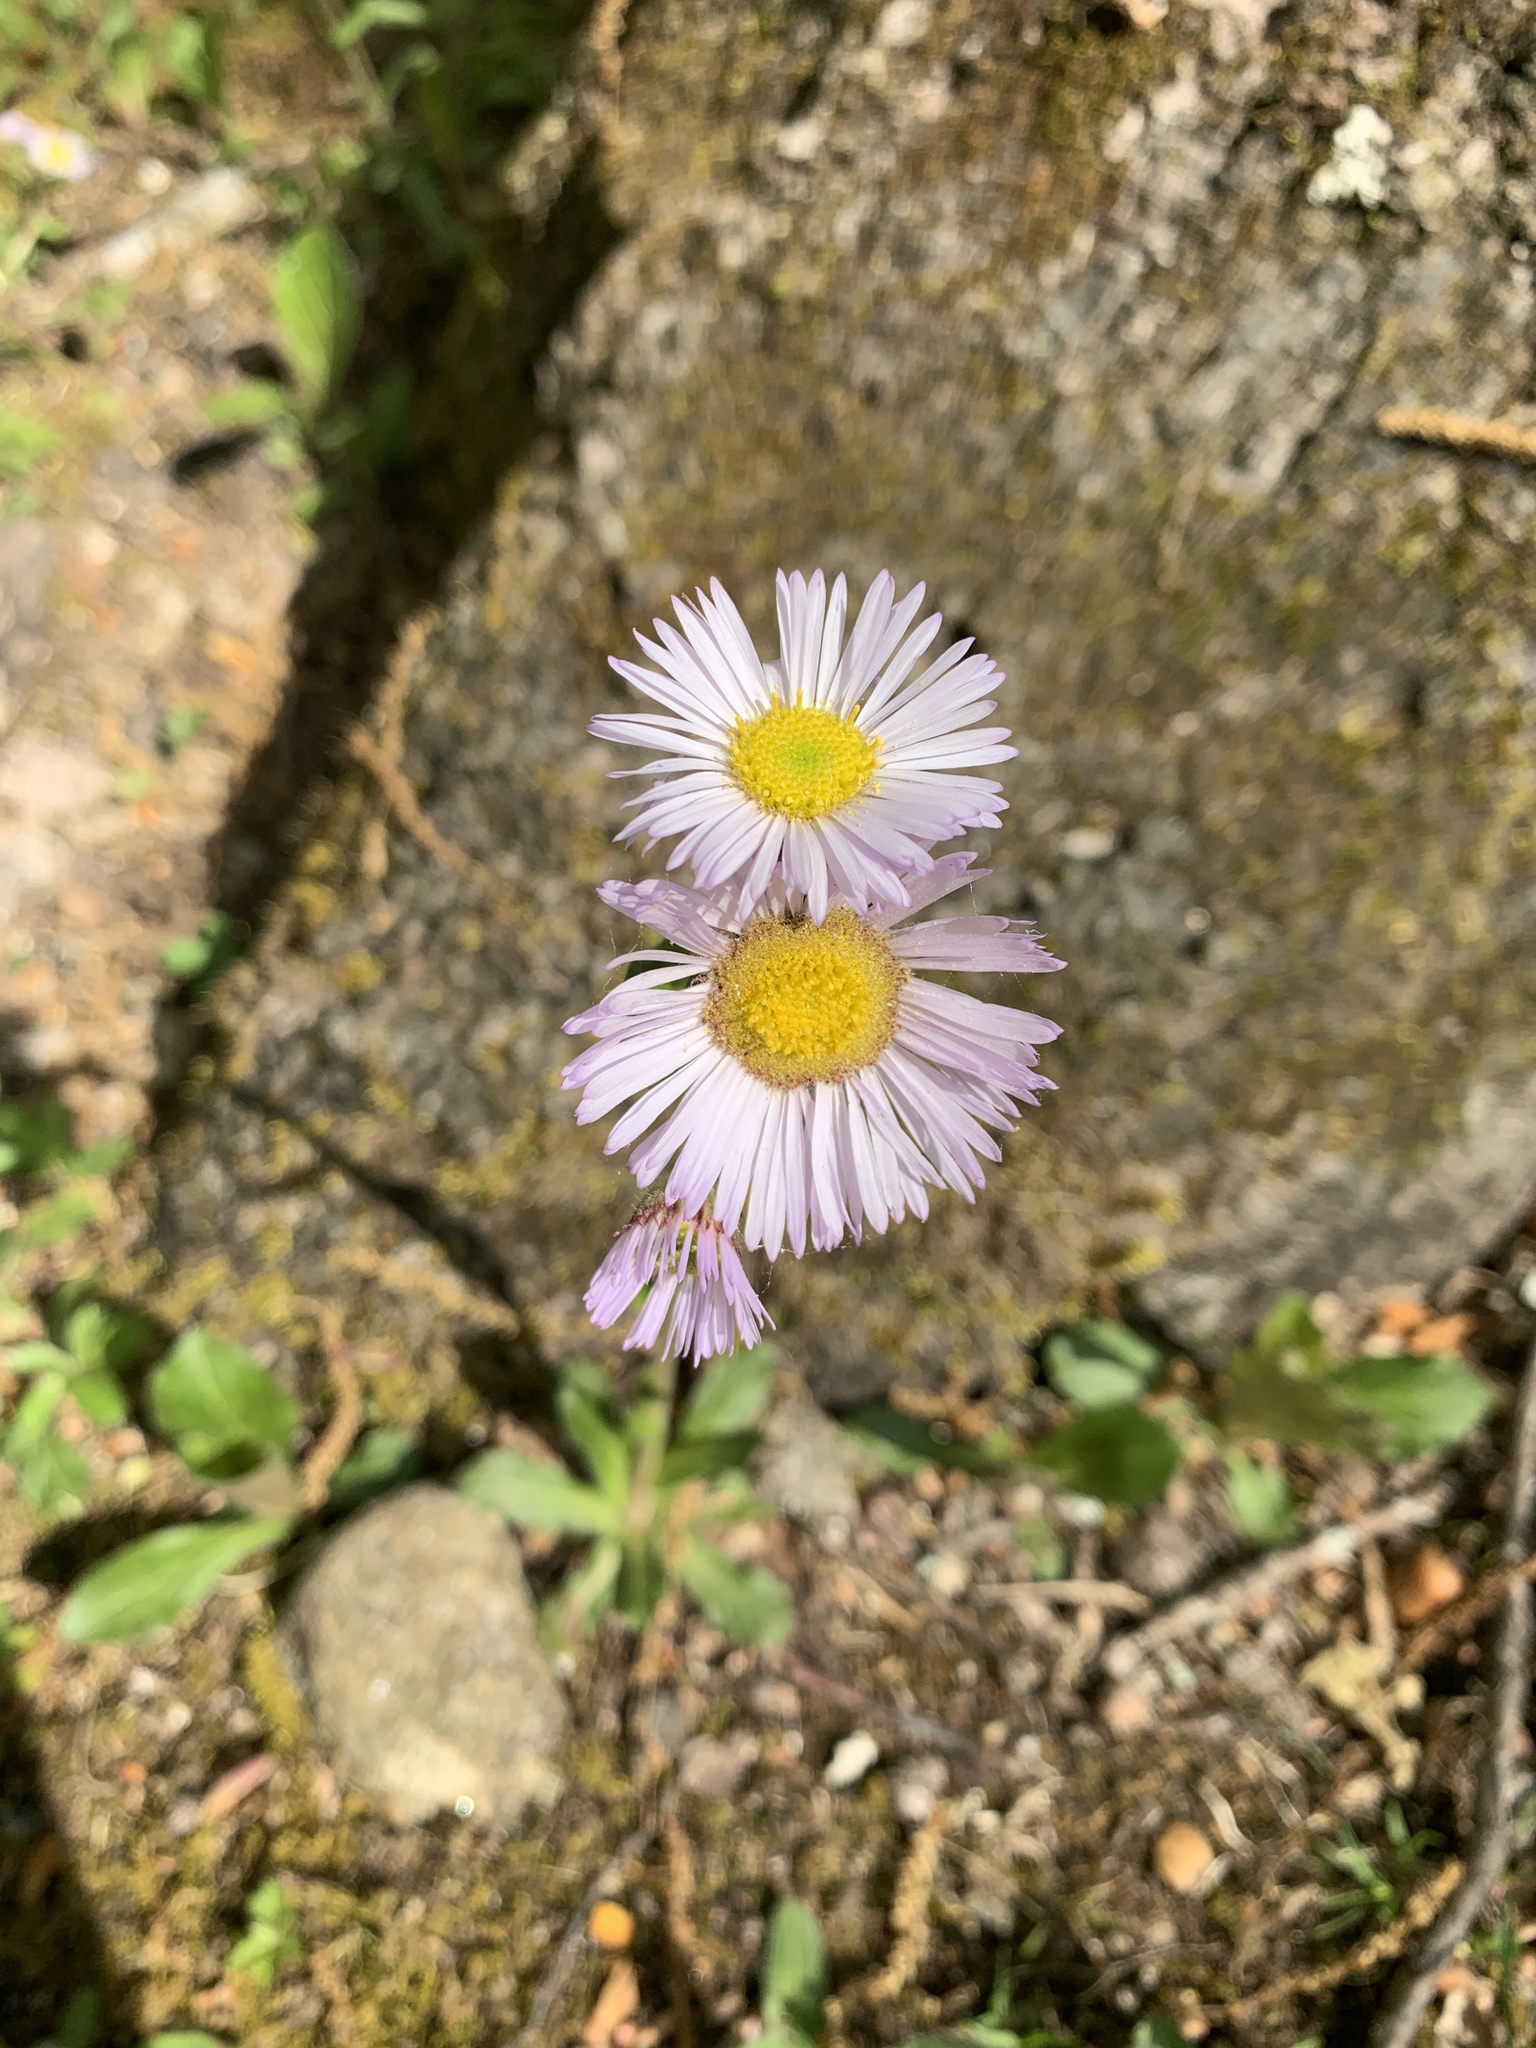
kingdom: Plantae
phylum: Tracheophyta
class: Magnoliopsida
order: Asterales
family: Asteraceae
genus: Erigeron
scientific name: Erigeron pulchellus
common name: Hairy fleabane
